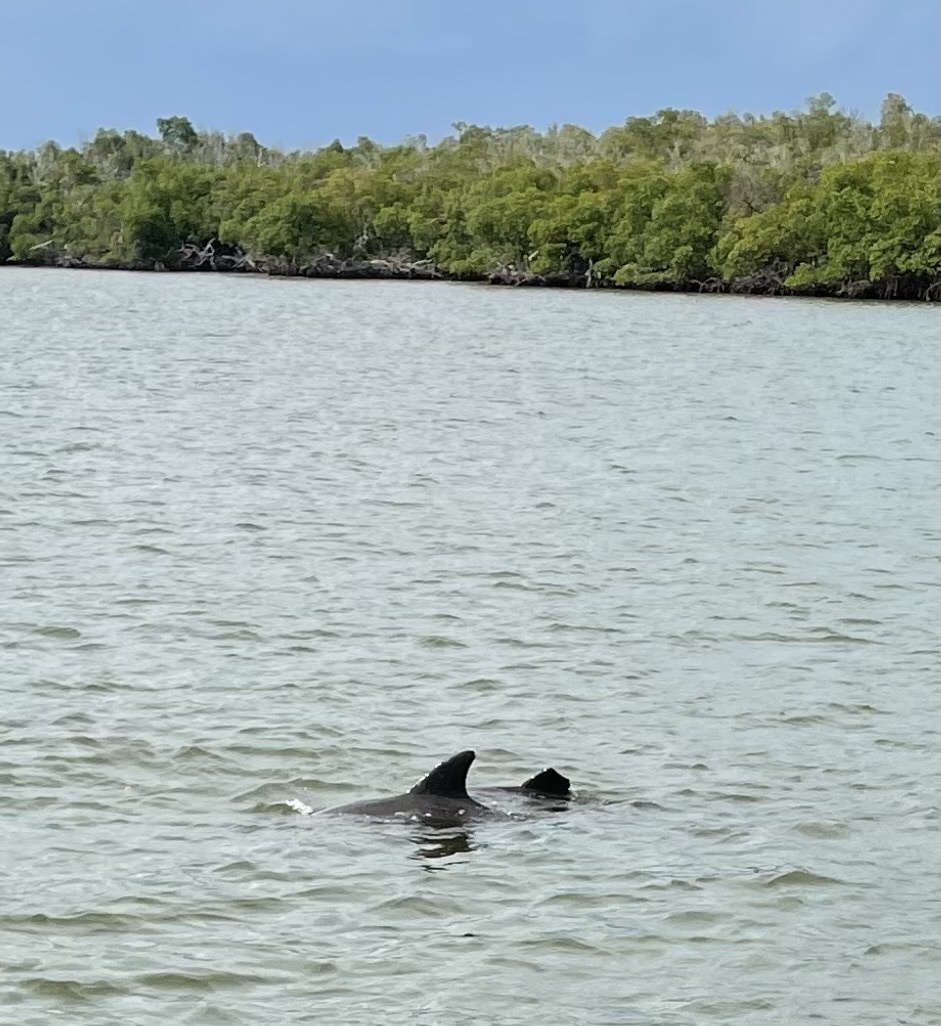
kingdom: Animalia
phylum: Chordata
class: Mammalia
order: Cetacea
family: Delphinidae
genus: Tursiops
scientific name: Tursiops truncatus
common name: Bottlenose dolphin
